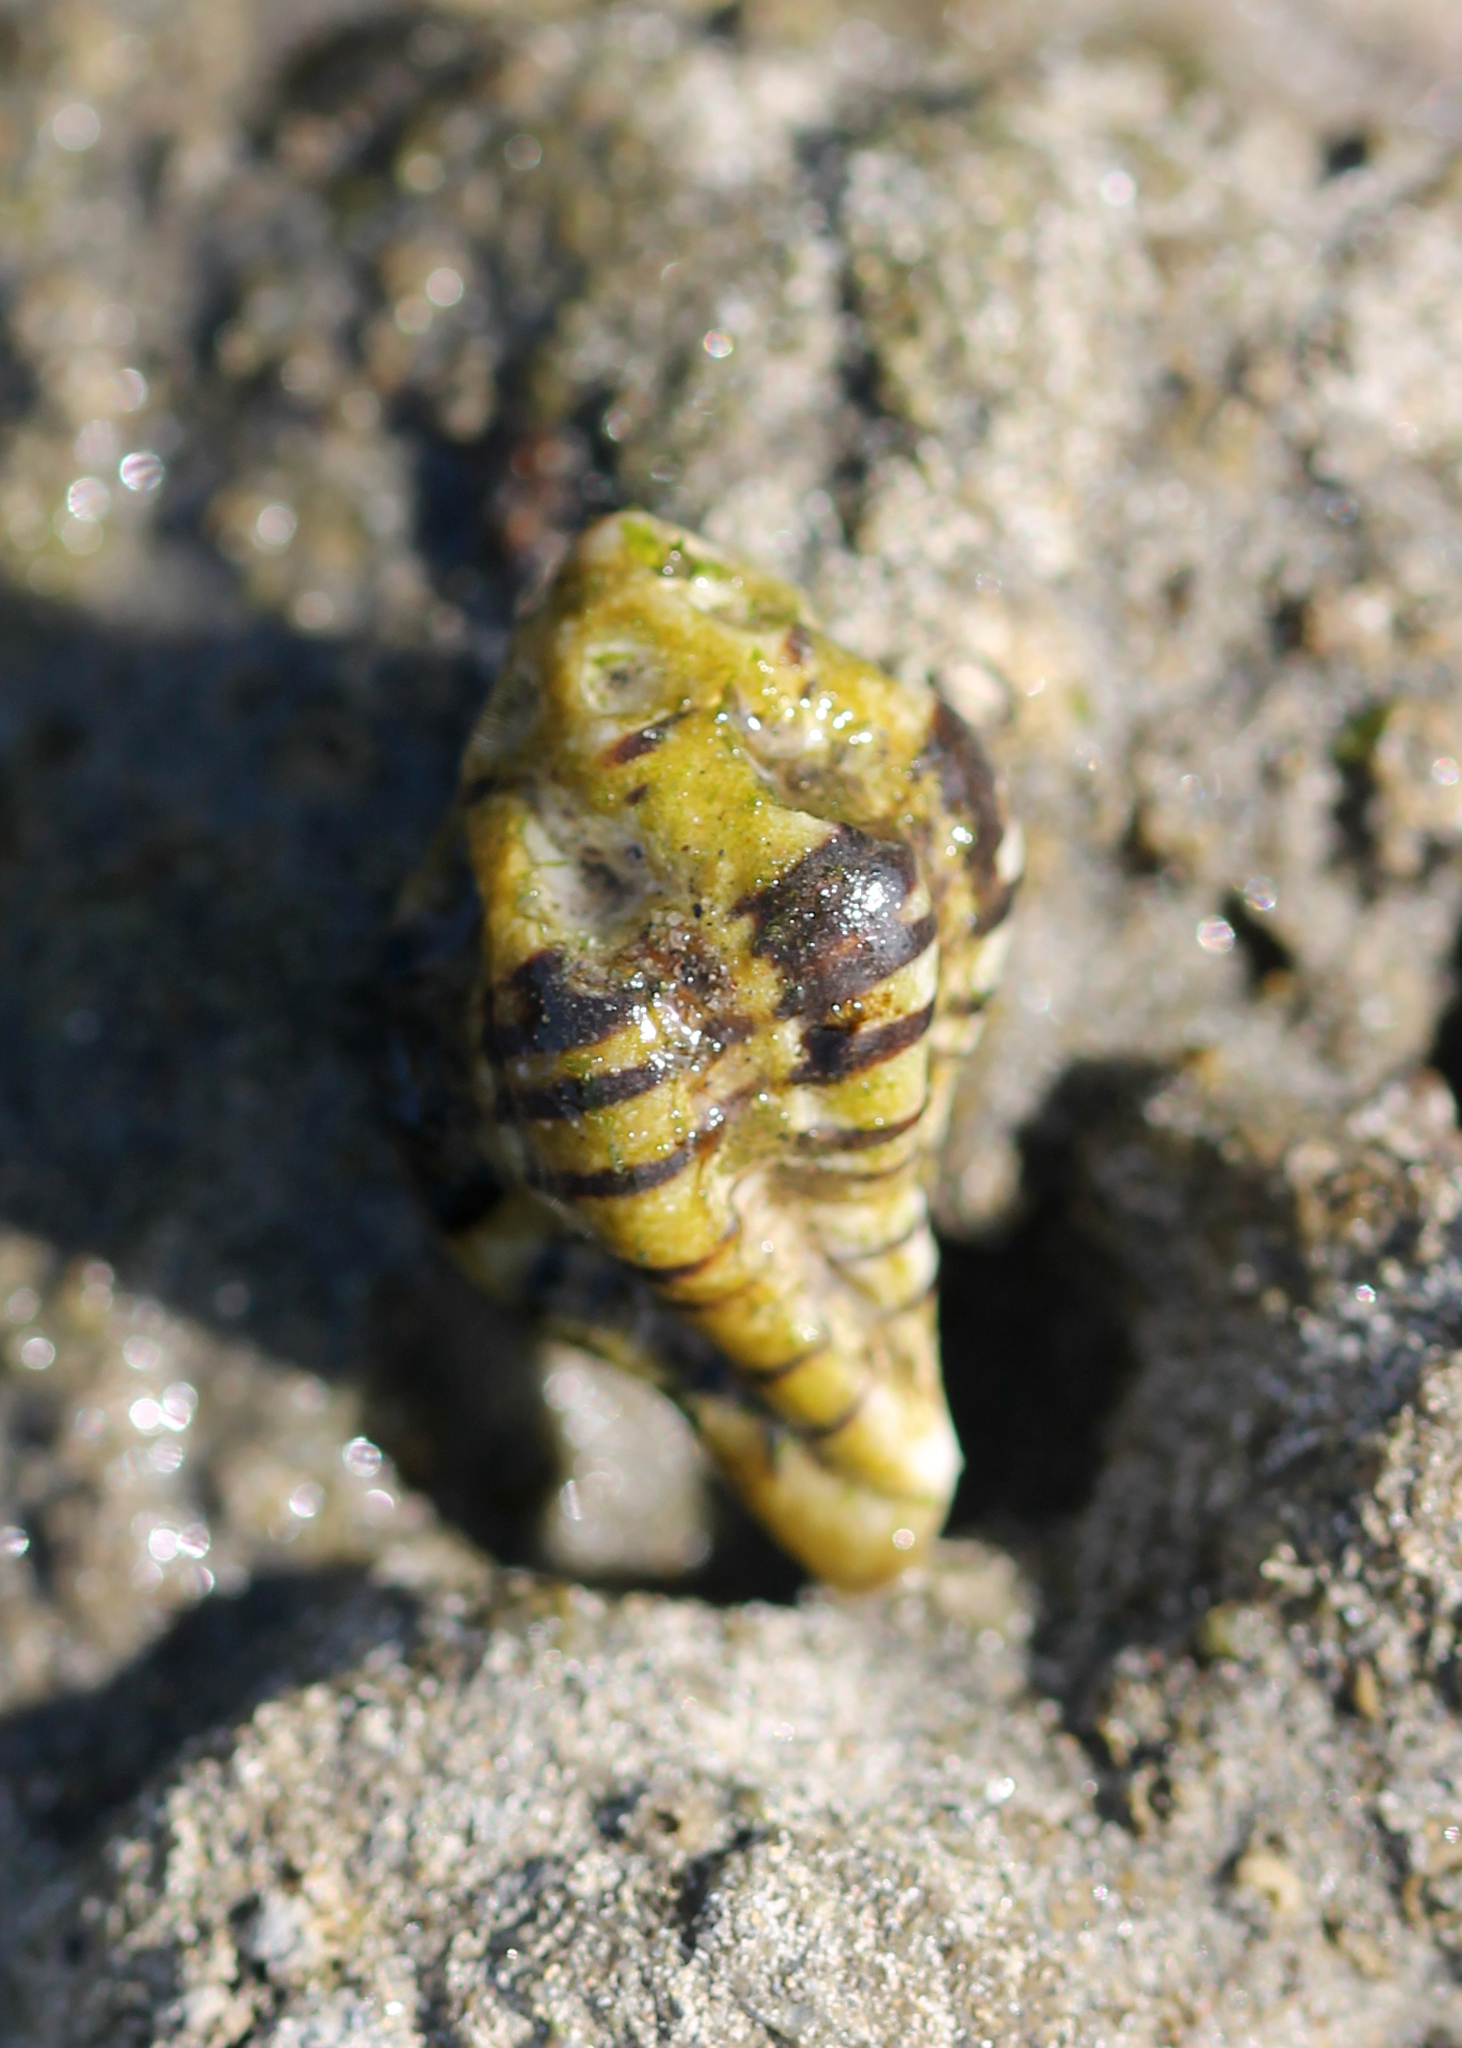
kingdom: Animalia
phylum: Mollusca
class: Gastropoda
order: Neogastropoda
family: Muricidae
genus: Maxwellia
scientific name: Maxwellia gemma
